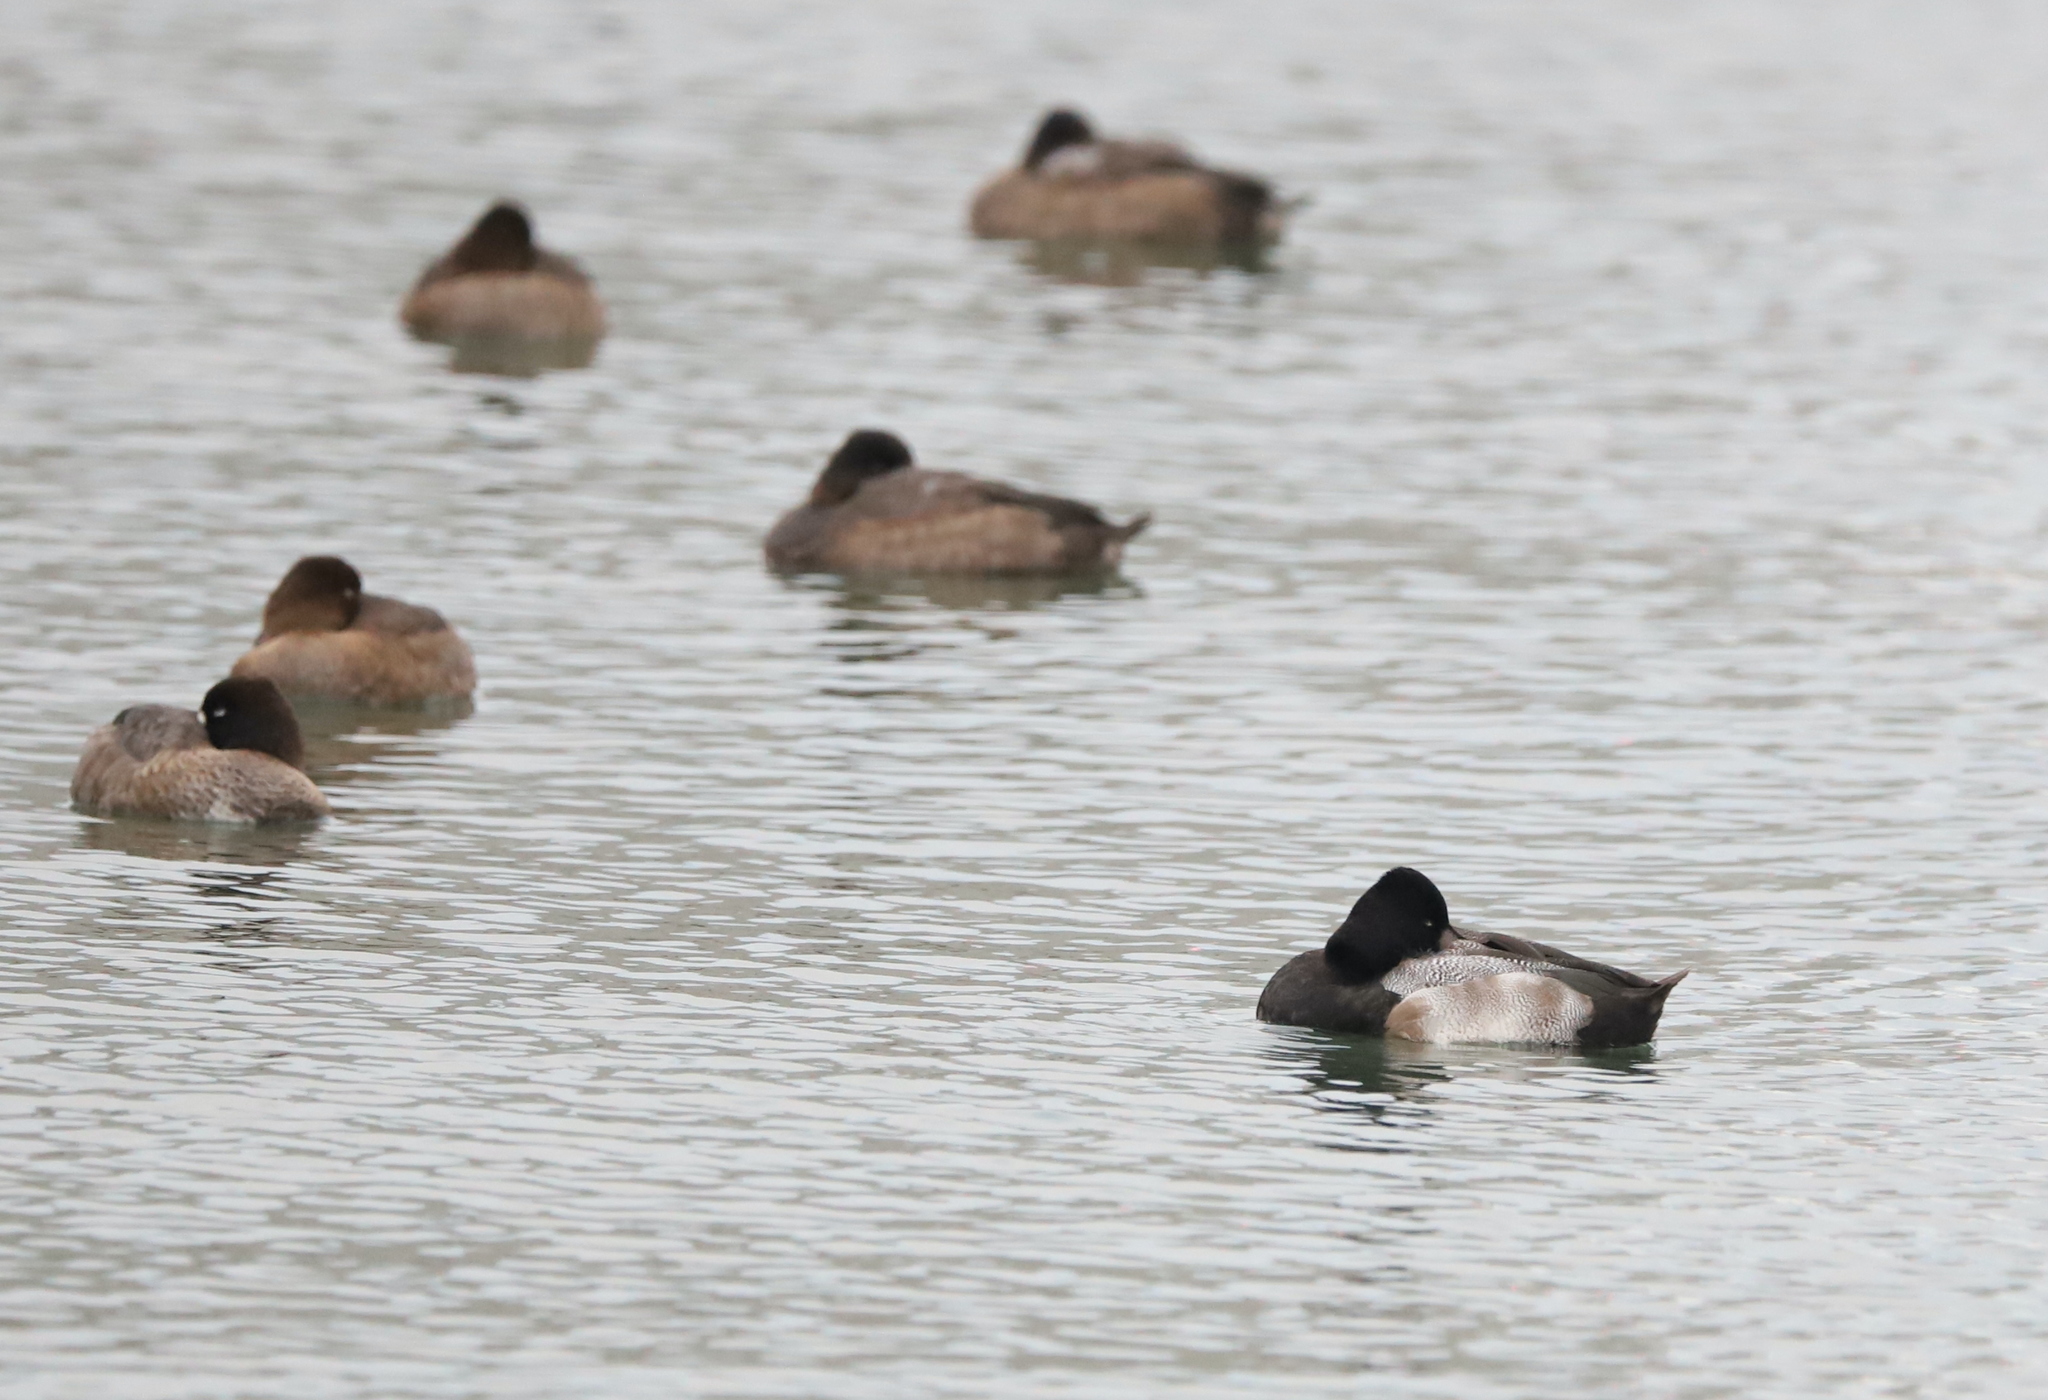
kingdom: Animalia
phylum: Chordata
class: Aves
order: Anseriformes
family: Anatidae
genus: Aythya
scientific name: Aythya affinis
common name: Lesser scaup
